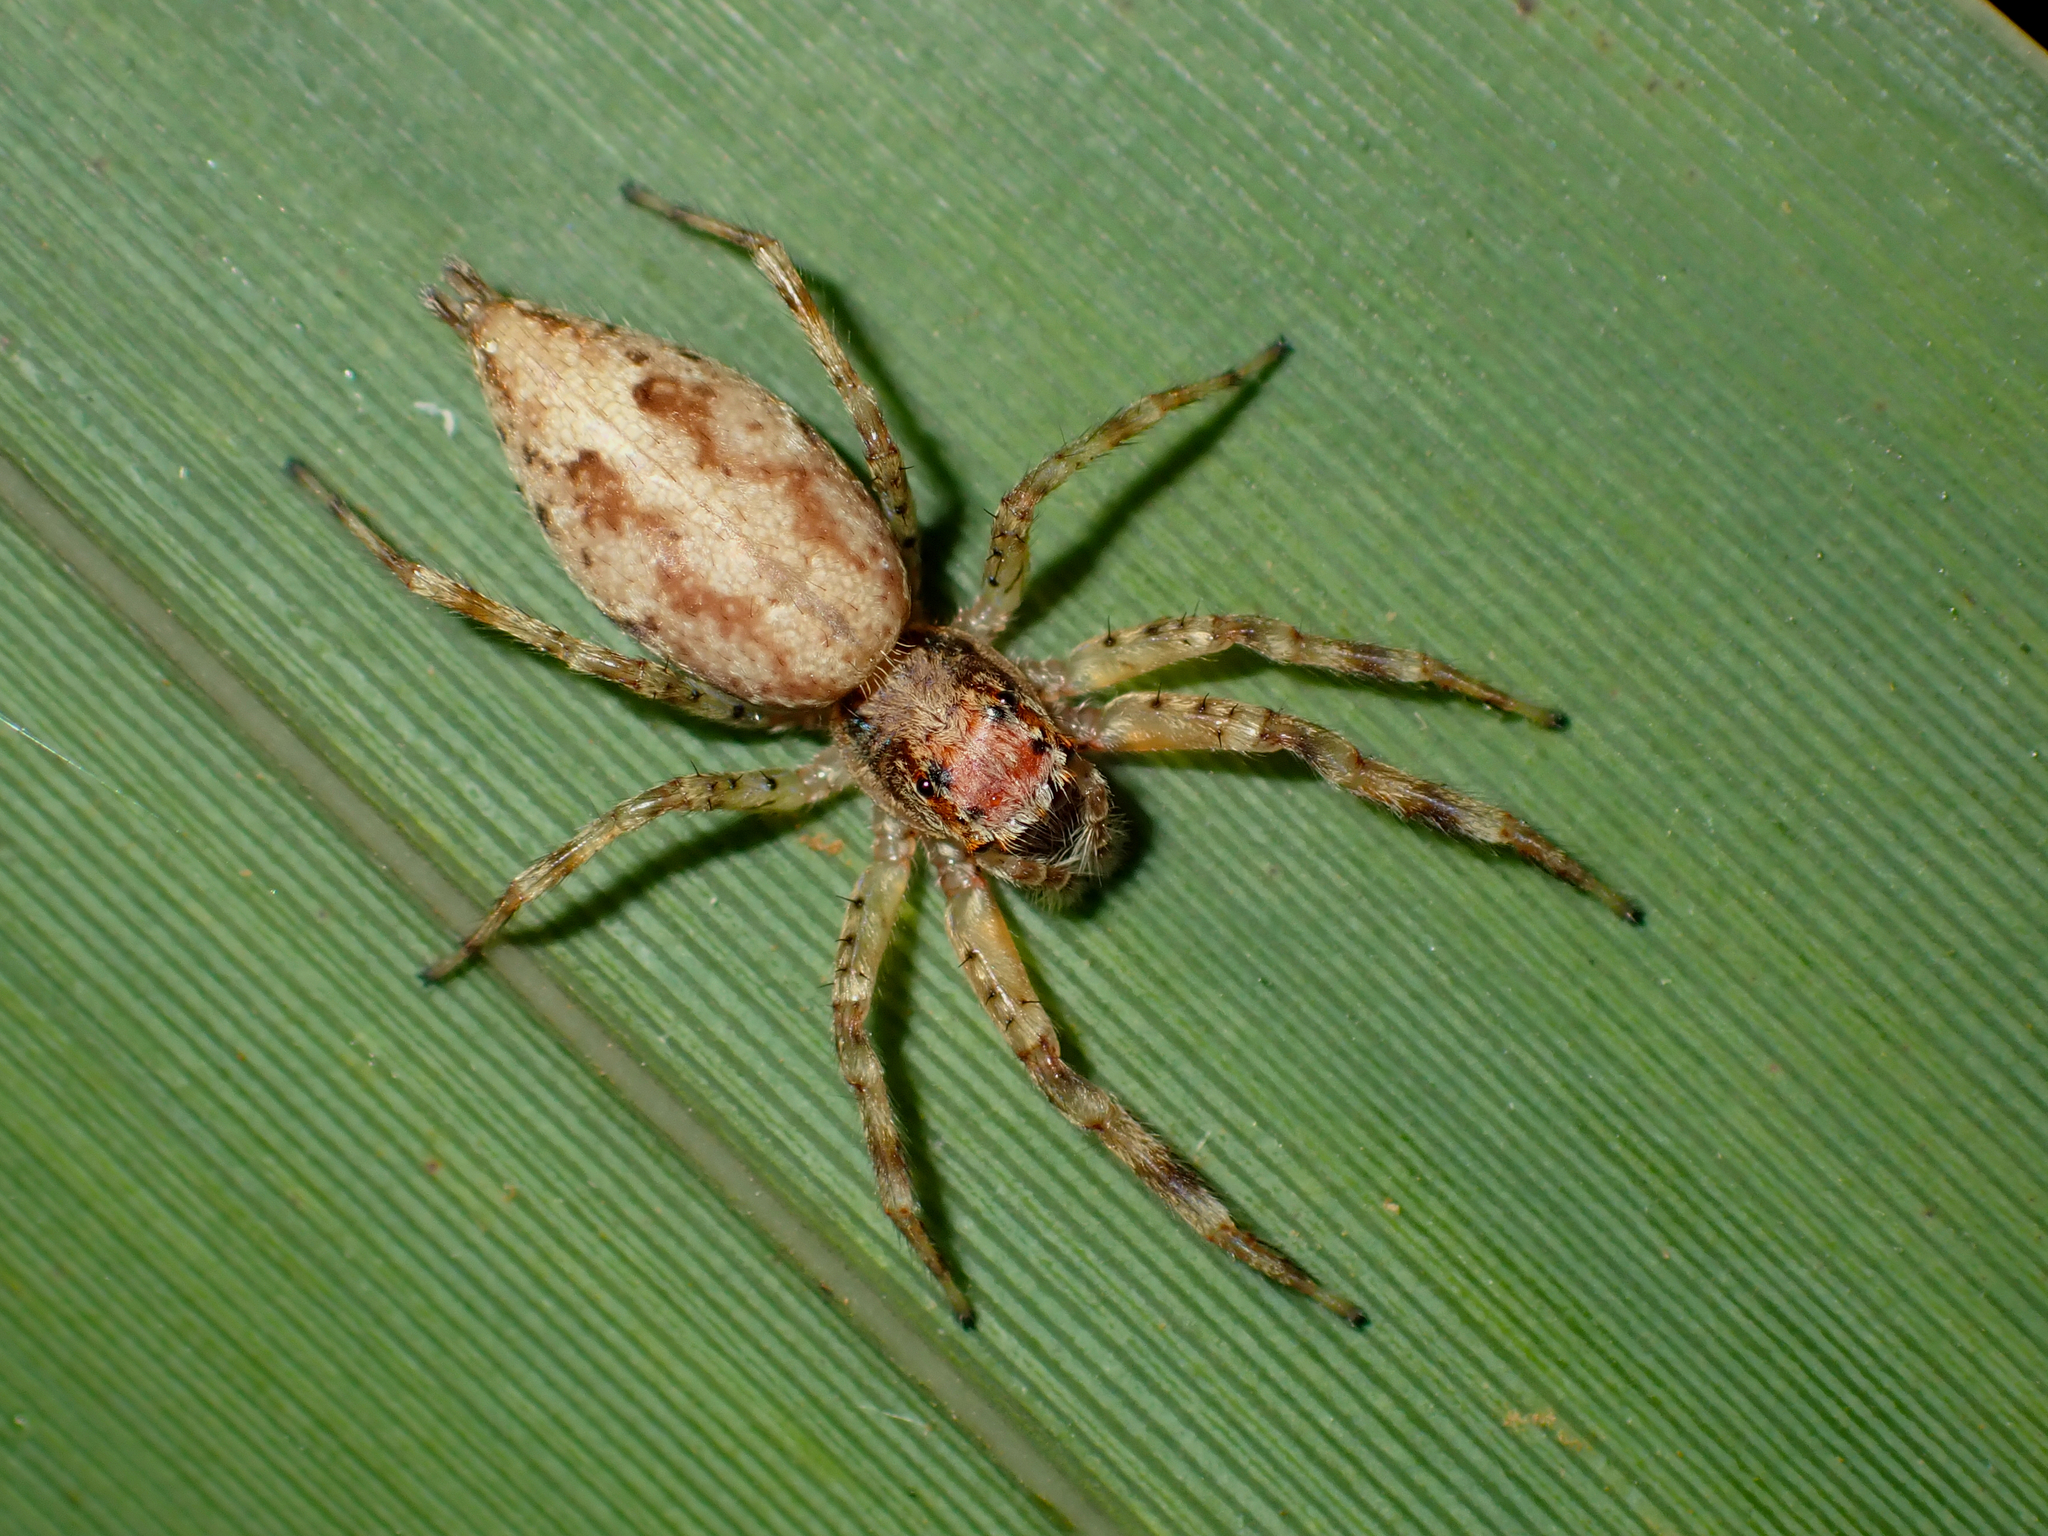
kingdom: Animalia
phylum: Arthropoda
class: Arachnida
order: Araneae
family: Salticidae
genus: Helpis
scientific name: Helpis minitabunda
